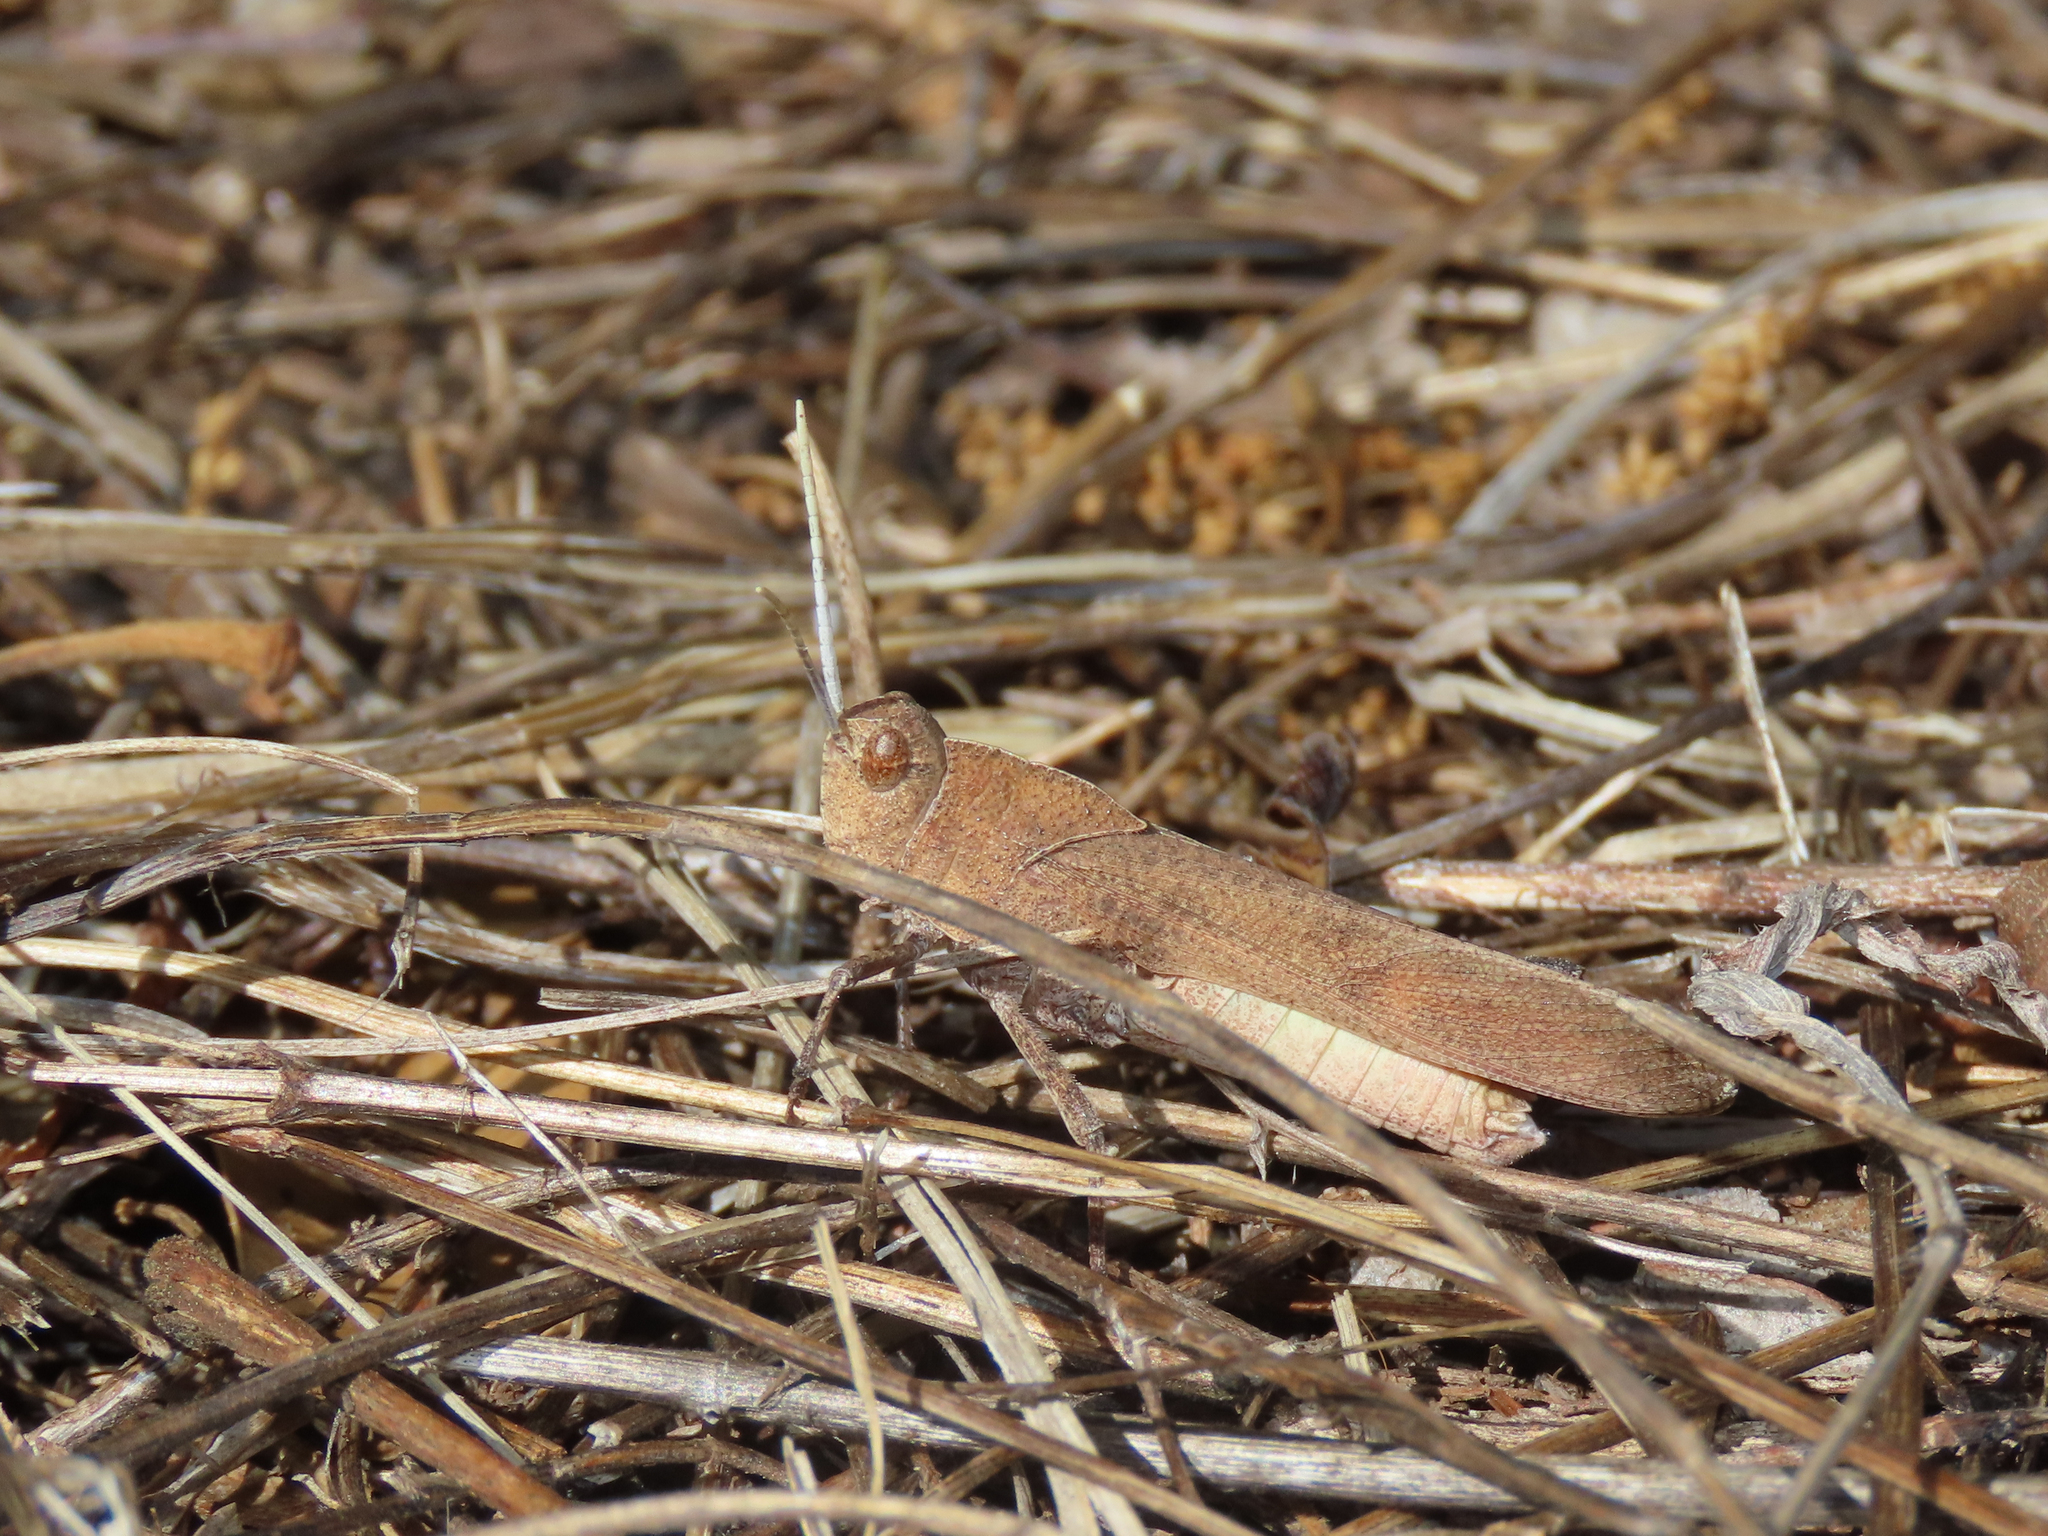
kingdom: Animalia
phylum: Arthropoda
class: Insecta
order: Orthoptera
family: Acrididae
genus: Tomonotus
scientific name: Tomonotus ferruginosus
